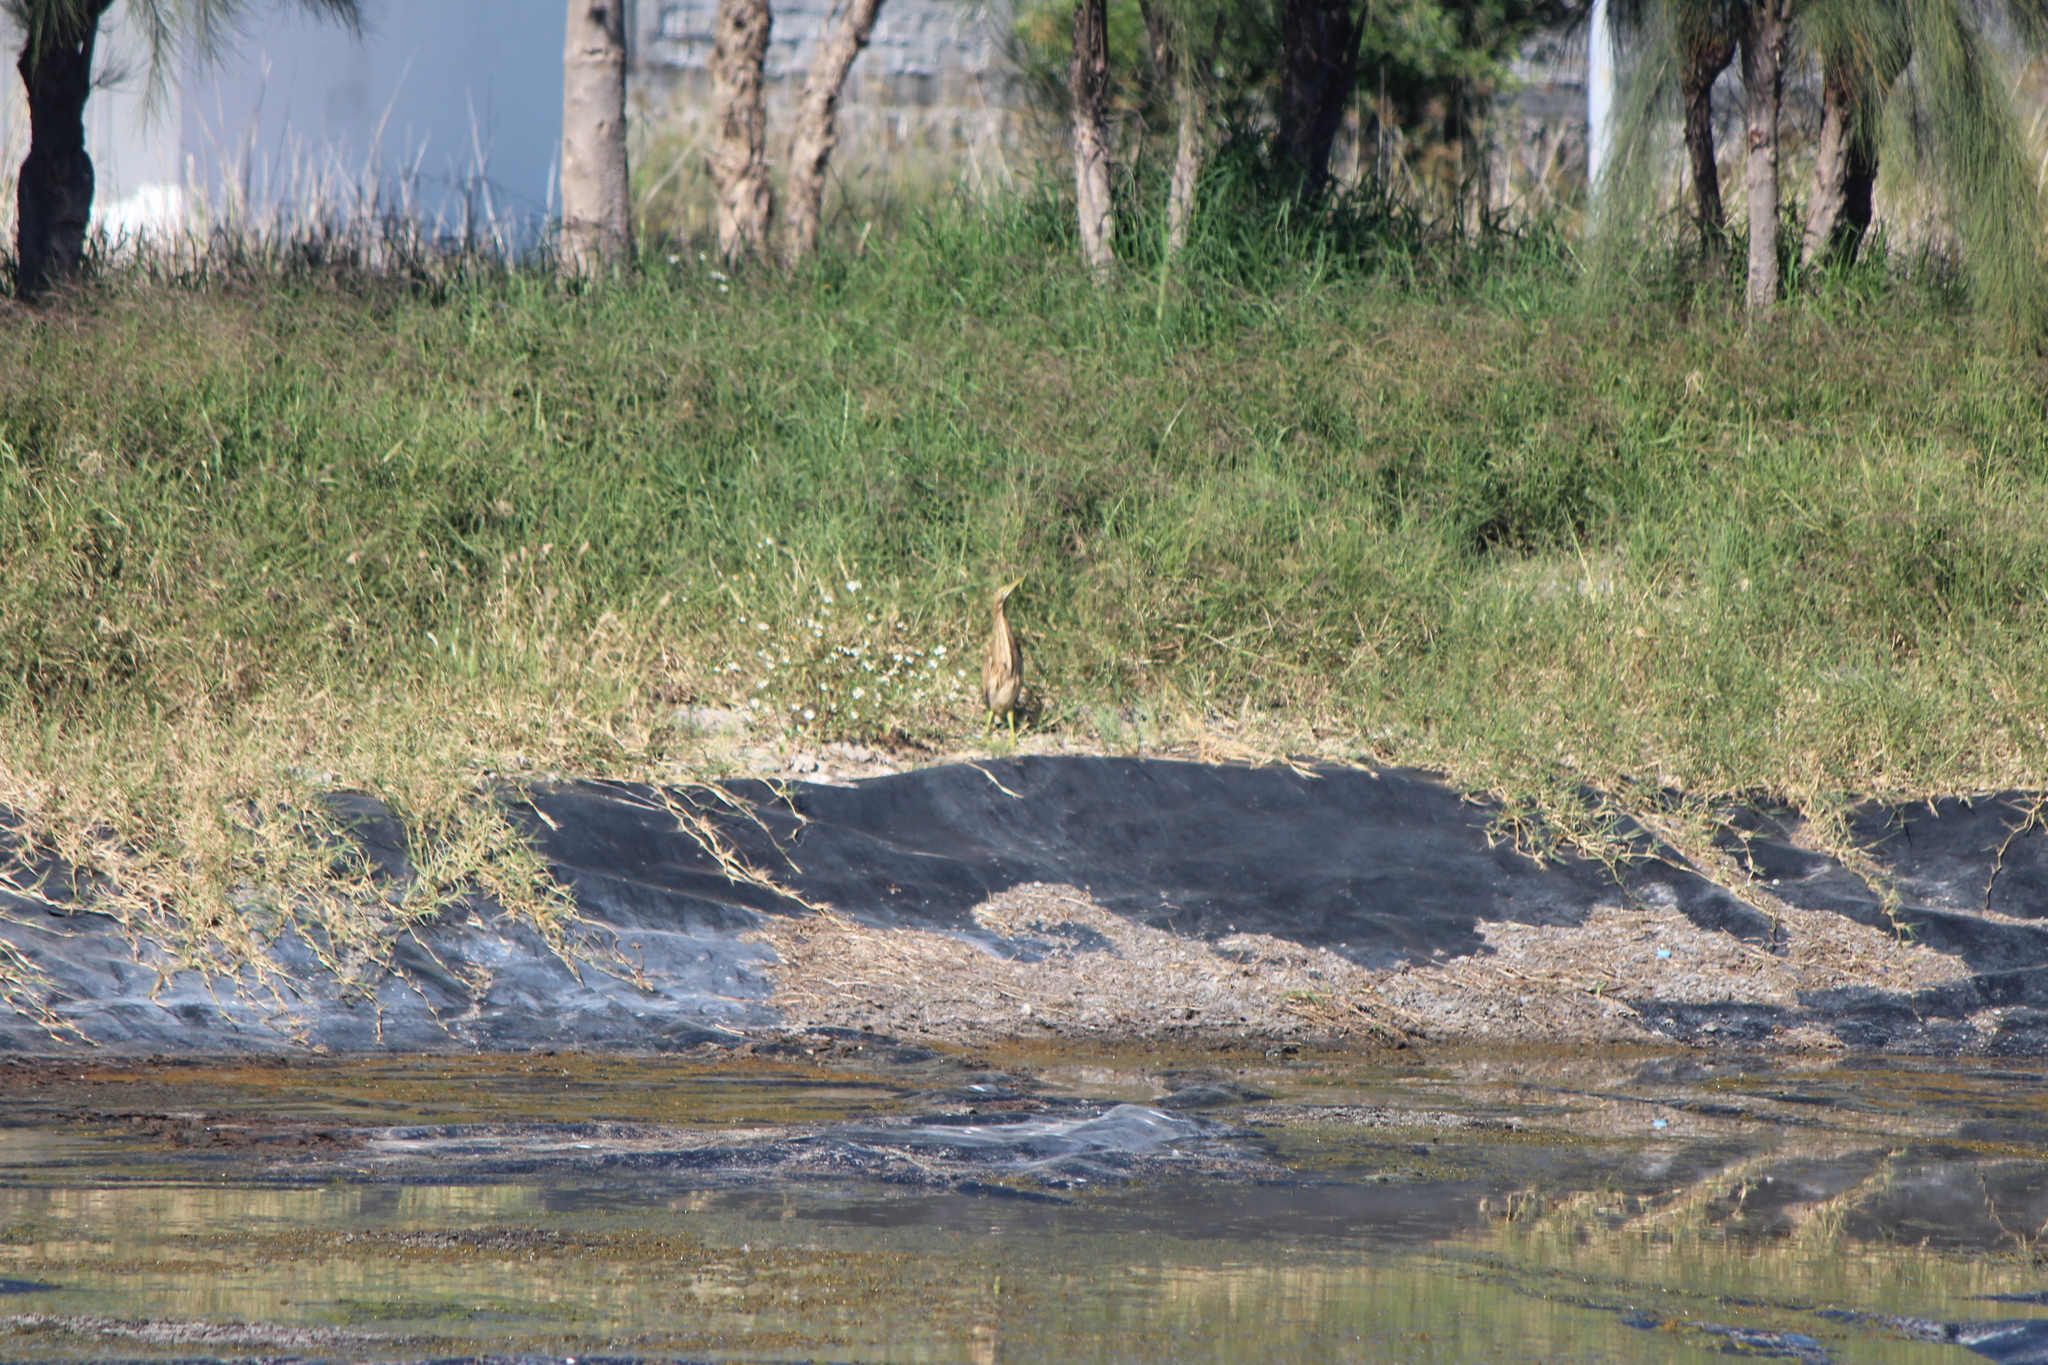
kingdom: Animalia
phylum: Chordata
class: Aves
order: Pelecaniformes
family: Ardeidae
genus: Botaurus
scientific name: Botaurus lentiginosus
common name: American bittern
